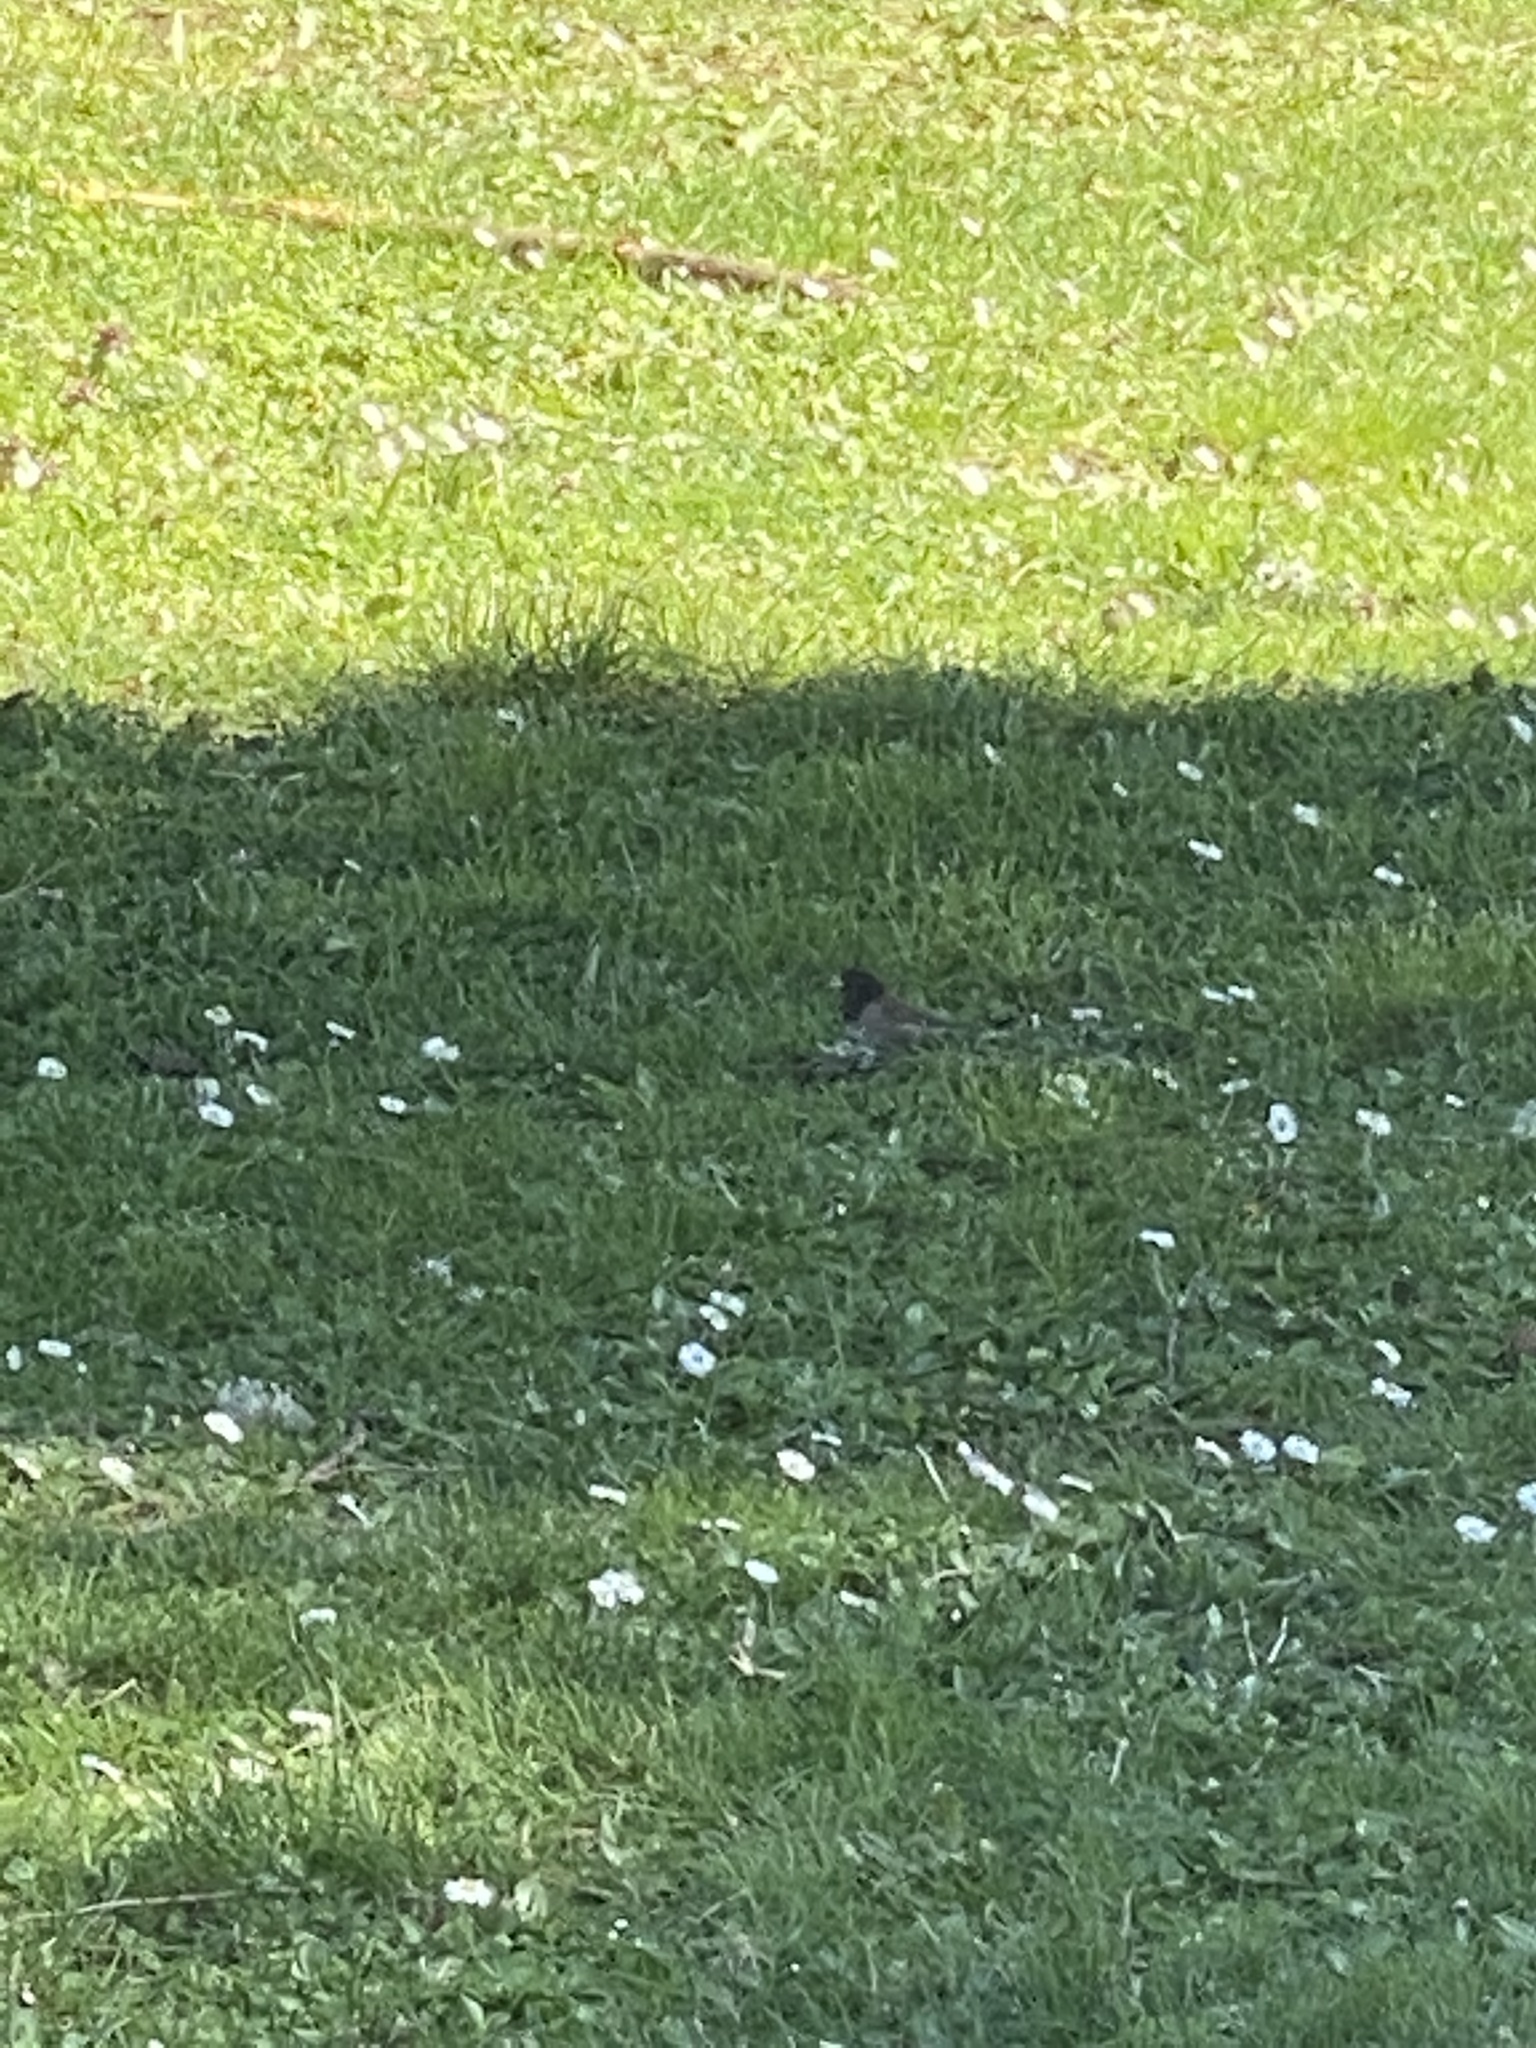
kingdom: Animalia
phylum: Chordata
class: Aves
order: Passeriformes
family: Passerellidae
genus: Junco
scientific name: Junco hyemalis
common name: Dark-eyed junco
